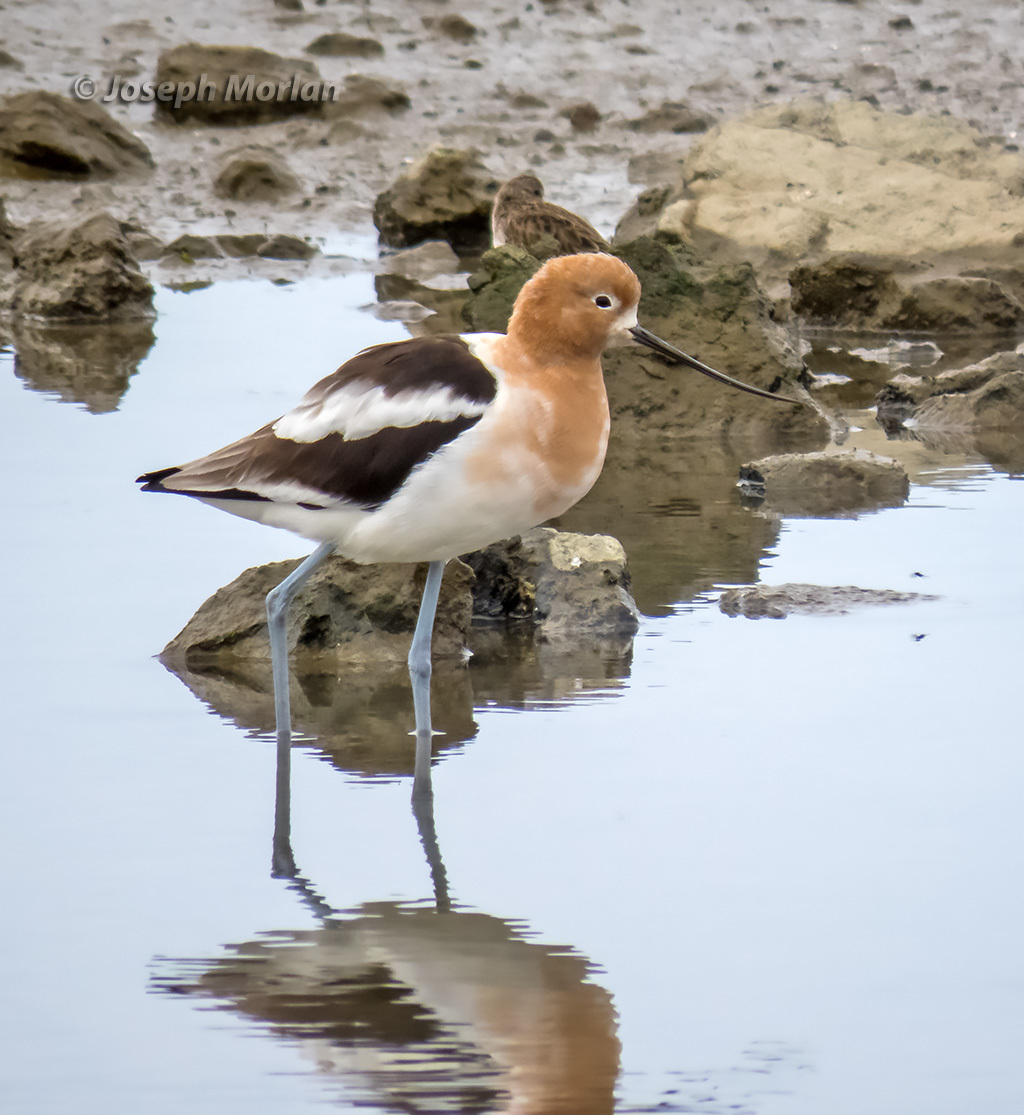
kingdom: Animalia
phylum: Chordata
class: Aves
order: Charadriiformes
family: Recurvirostridae
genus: Recurvirostra
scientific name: Recurvirostra americana
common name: American avocet
